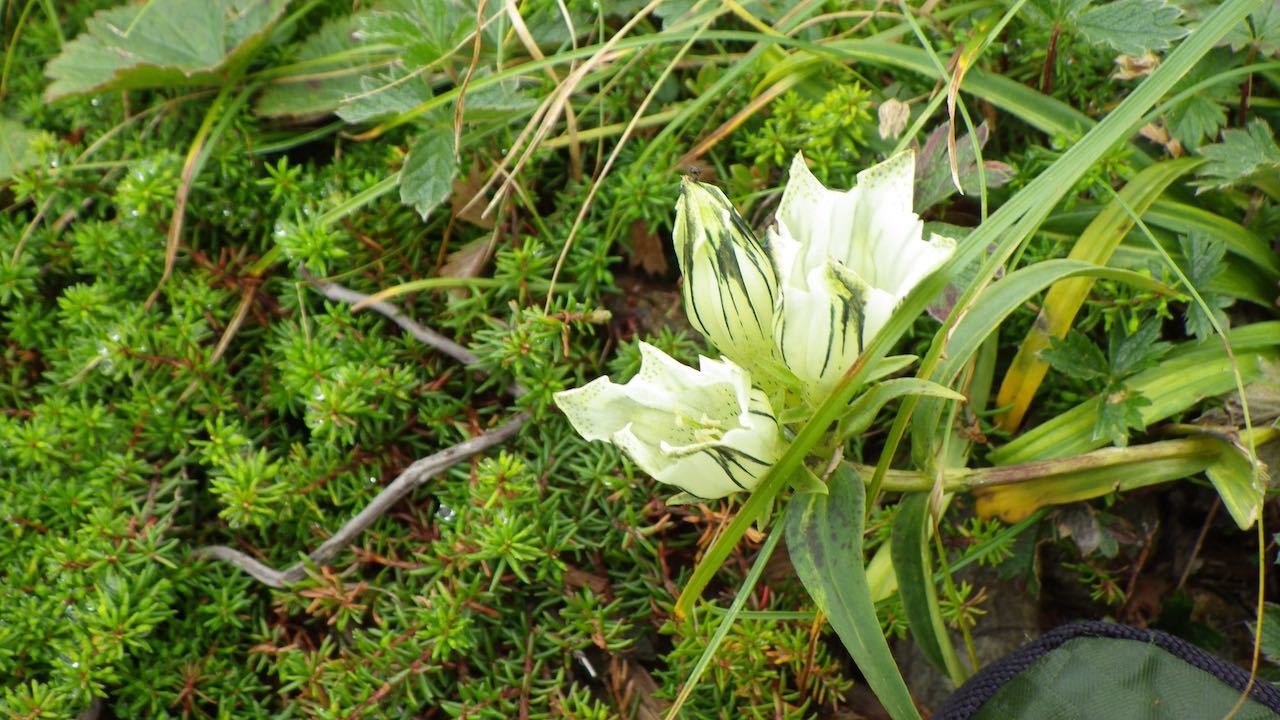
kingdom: Plantae
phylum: Tracheophyta
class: Magnoliopsida
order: Gentianales
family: Gentianaceae
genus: Gentiana
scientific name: Gentiana algida
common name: Arctic gentian
